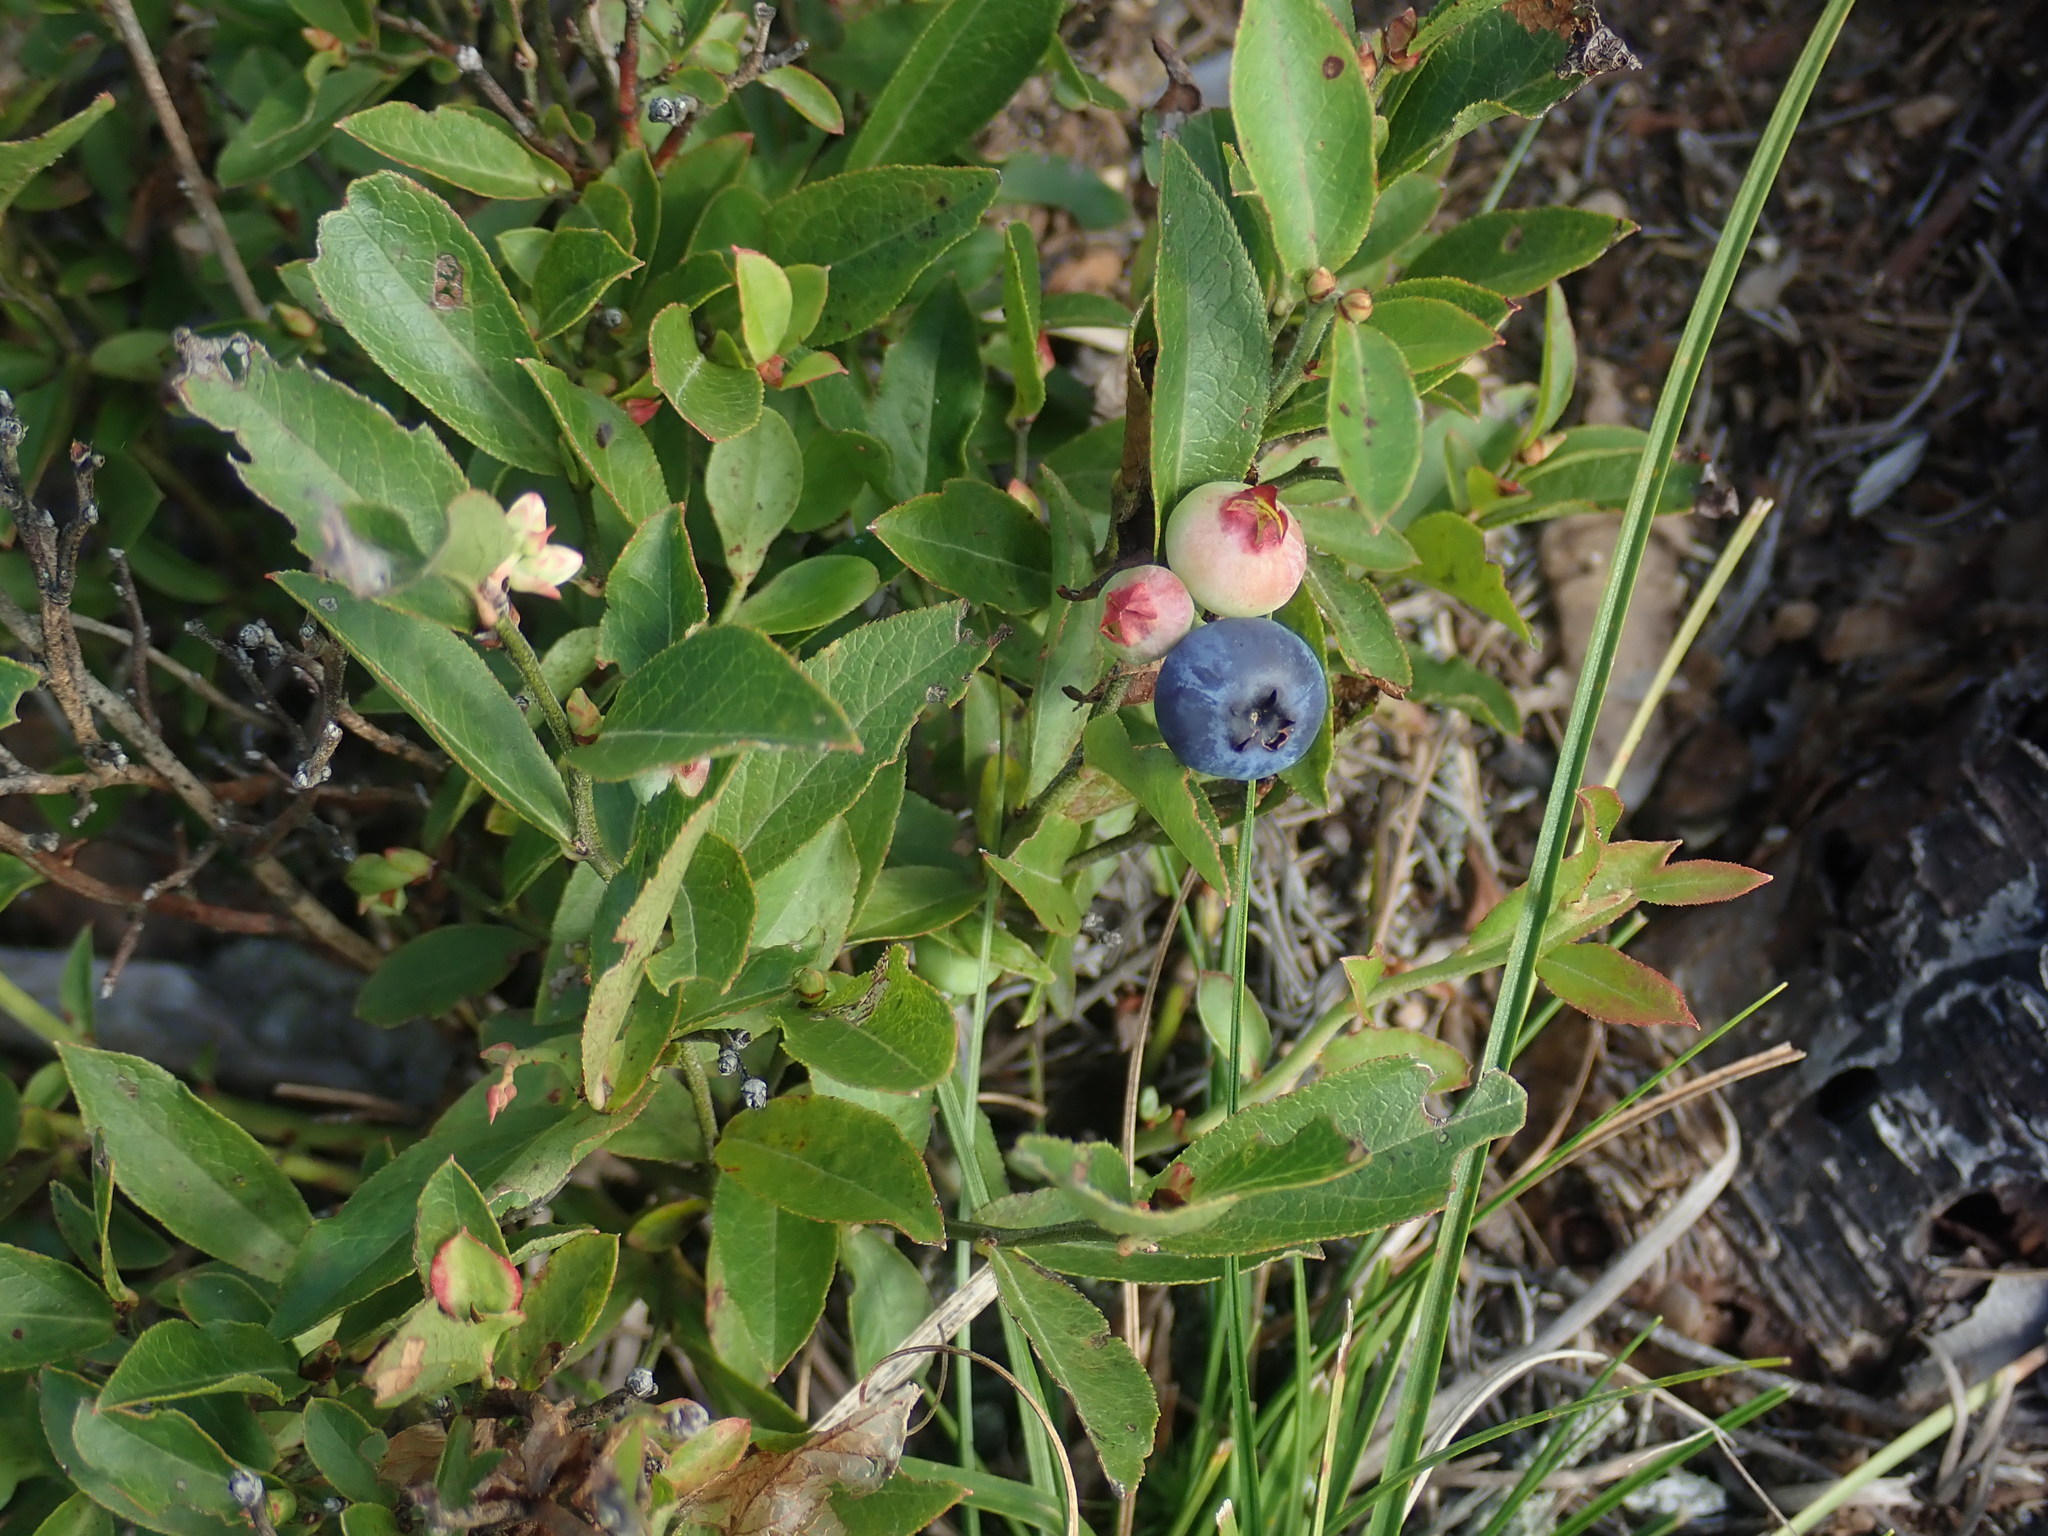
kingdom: Plantae
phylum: Tracheophyta
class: Magnoliopsida
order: Ericales
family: Ericaceae
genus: Vaccinium
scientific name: Vaccinium angustifolium
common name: Early lowbush blueberry
